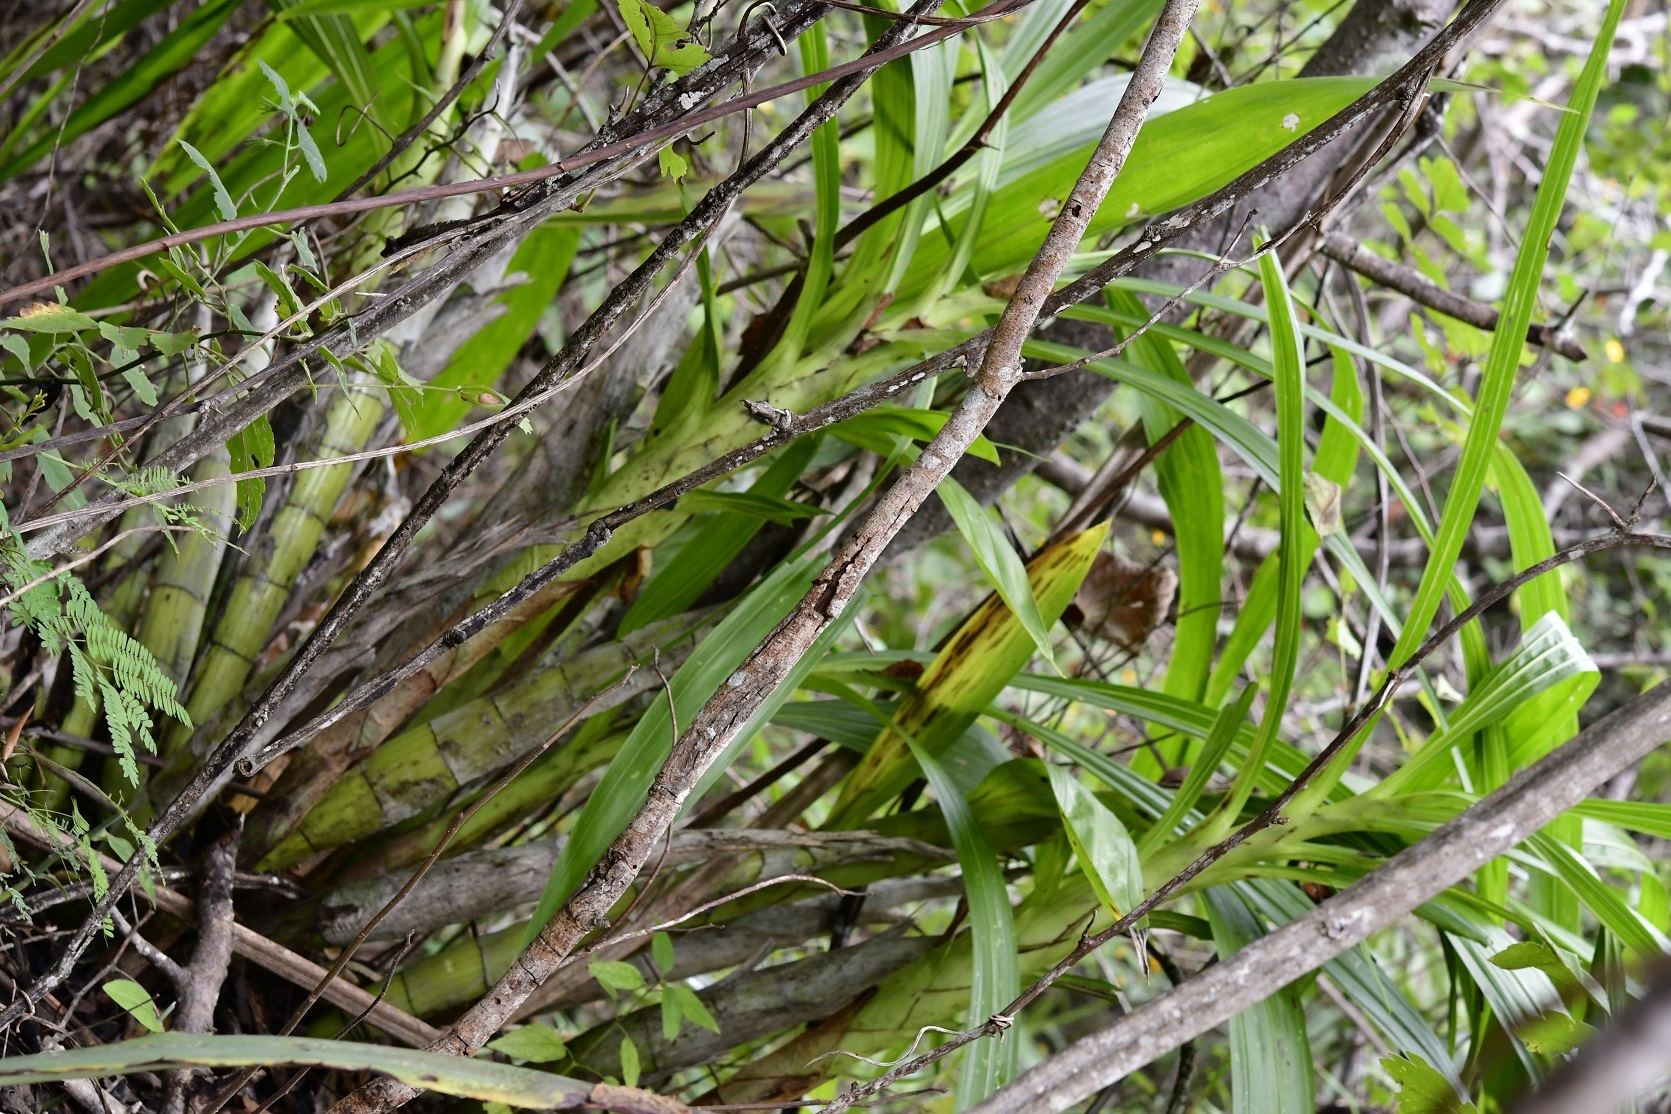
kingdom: Plantae
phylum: Tracheophyta
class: Liliopsida
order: Asparagales
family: Orchidaceae
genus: Cyrtopodium
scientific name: Cyrtopodium macrobulbon
